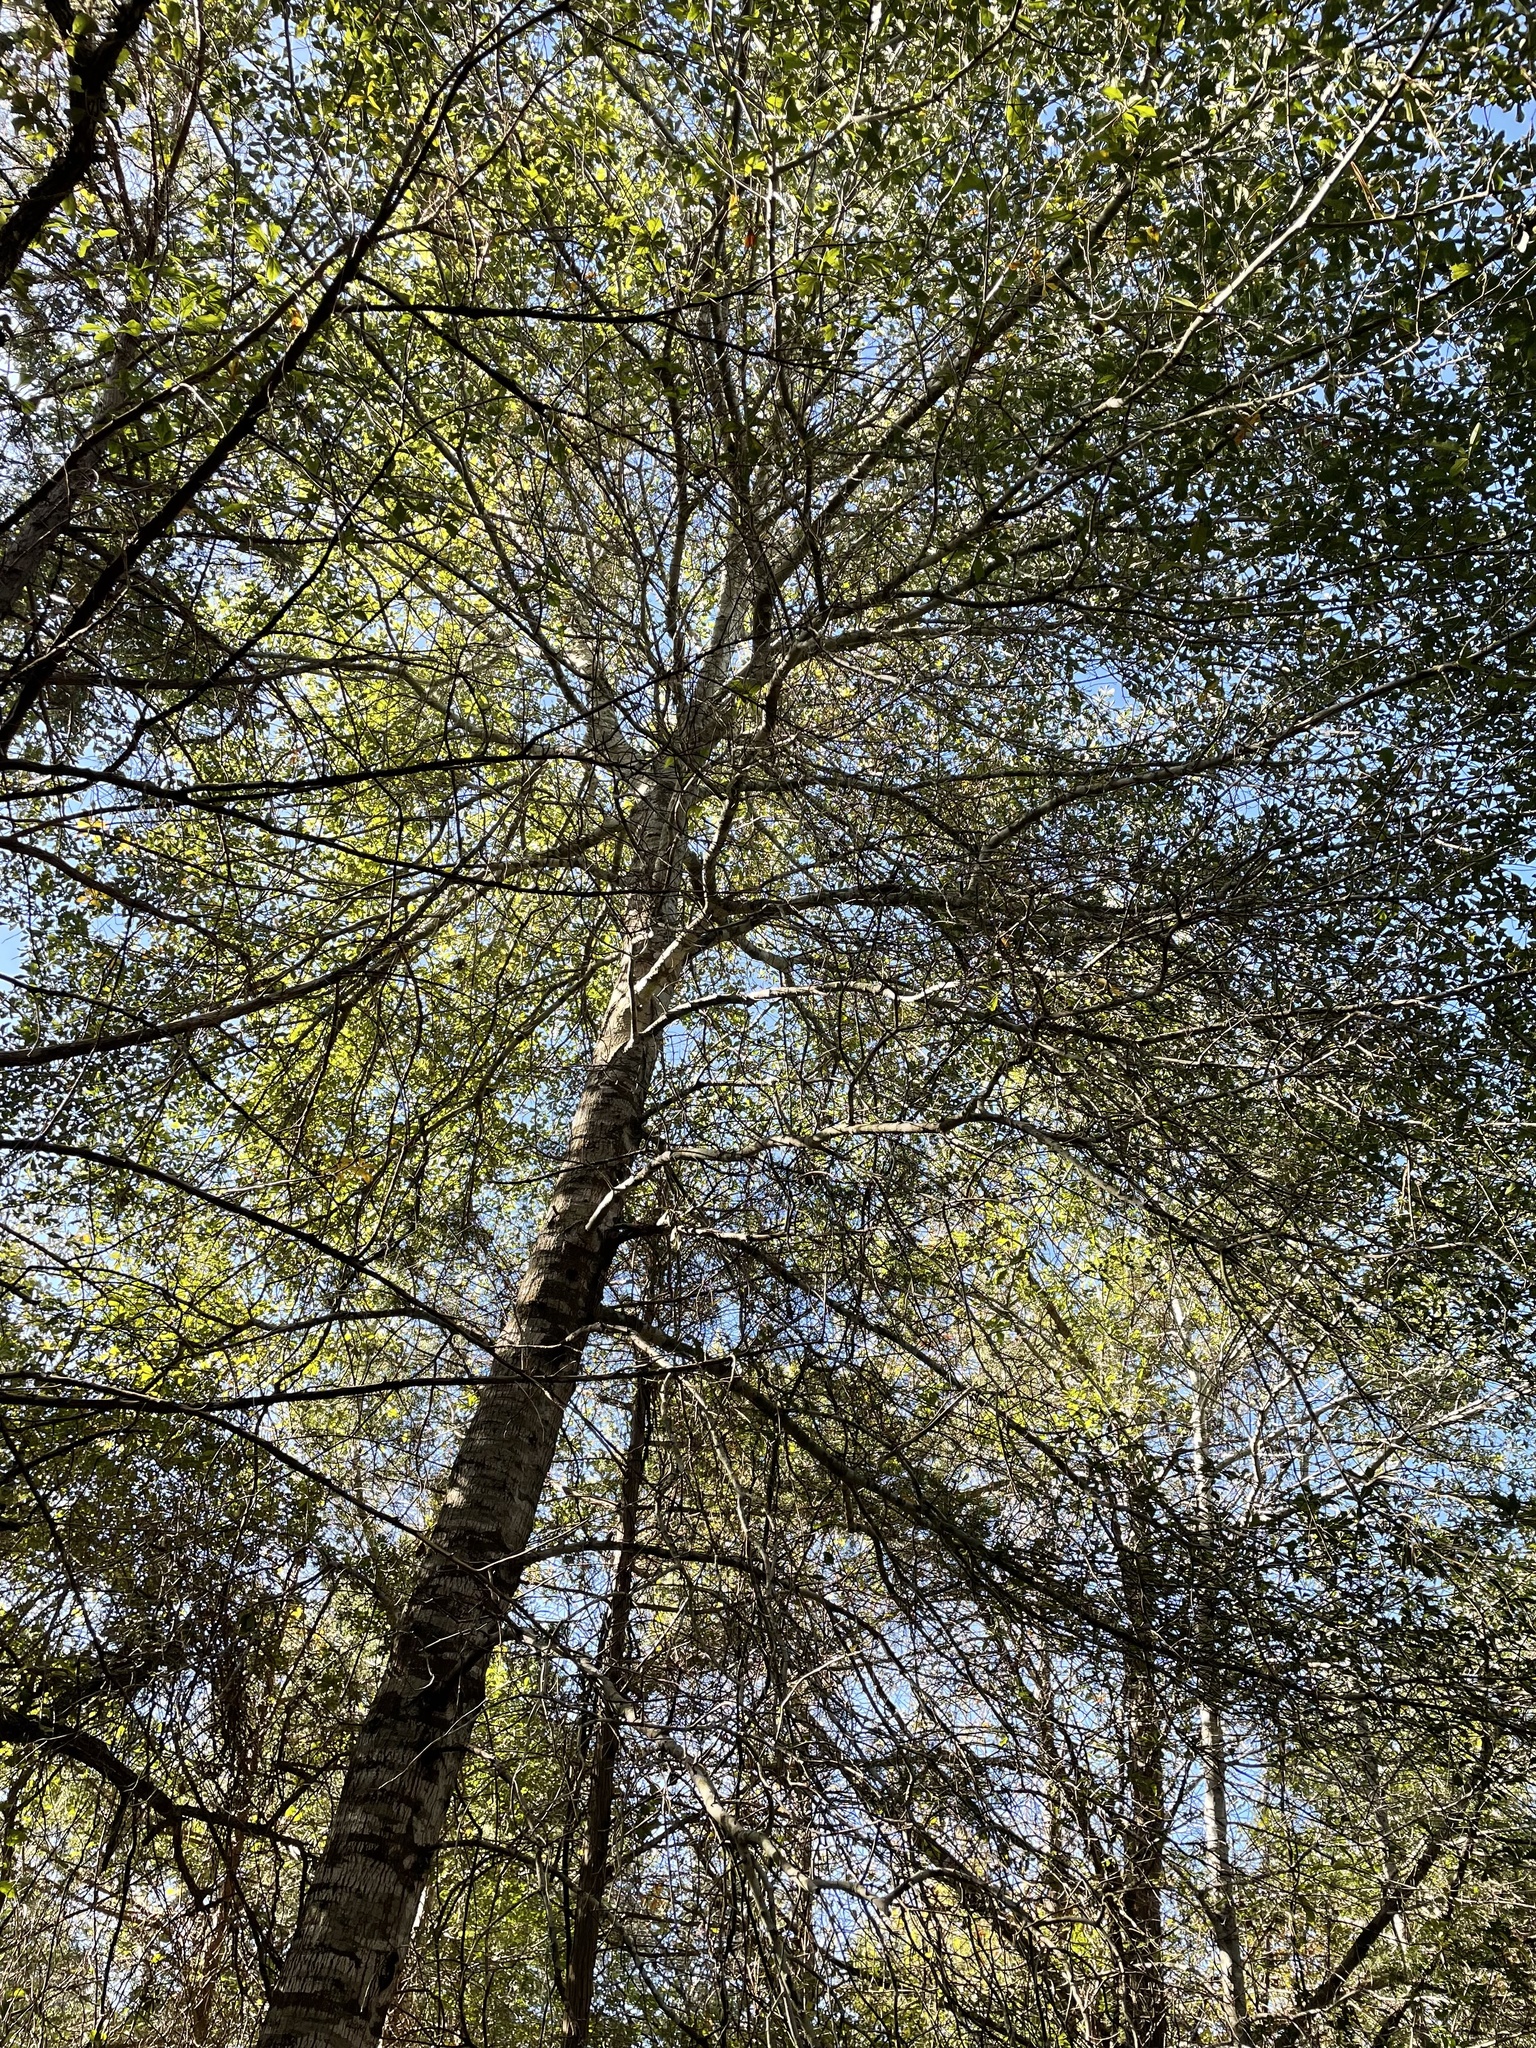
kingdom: Plantae
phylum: Tracheophyta
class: Magnoliopsida
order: Fagales
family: Fagaceae
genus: Quercus
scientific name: Quercus nigra
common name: Water oak
